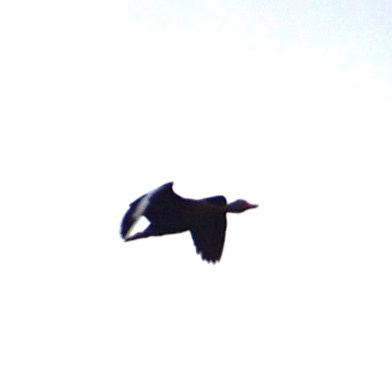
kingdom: Animalia
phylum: Chordata
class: Aves
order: Anseriformes
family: Anatidae
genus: Dendrocygna
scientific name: Dendrocygna autumnalis
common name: Black-bellied whistling duck
